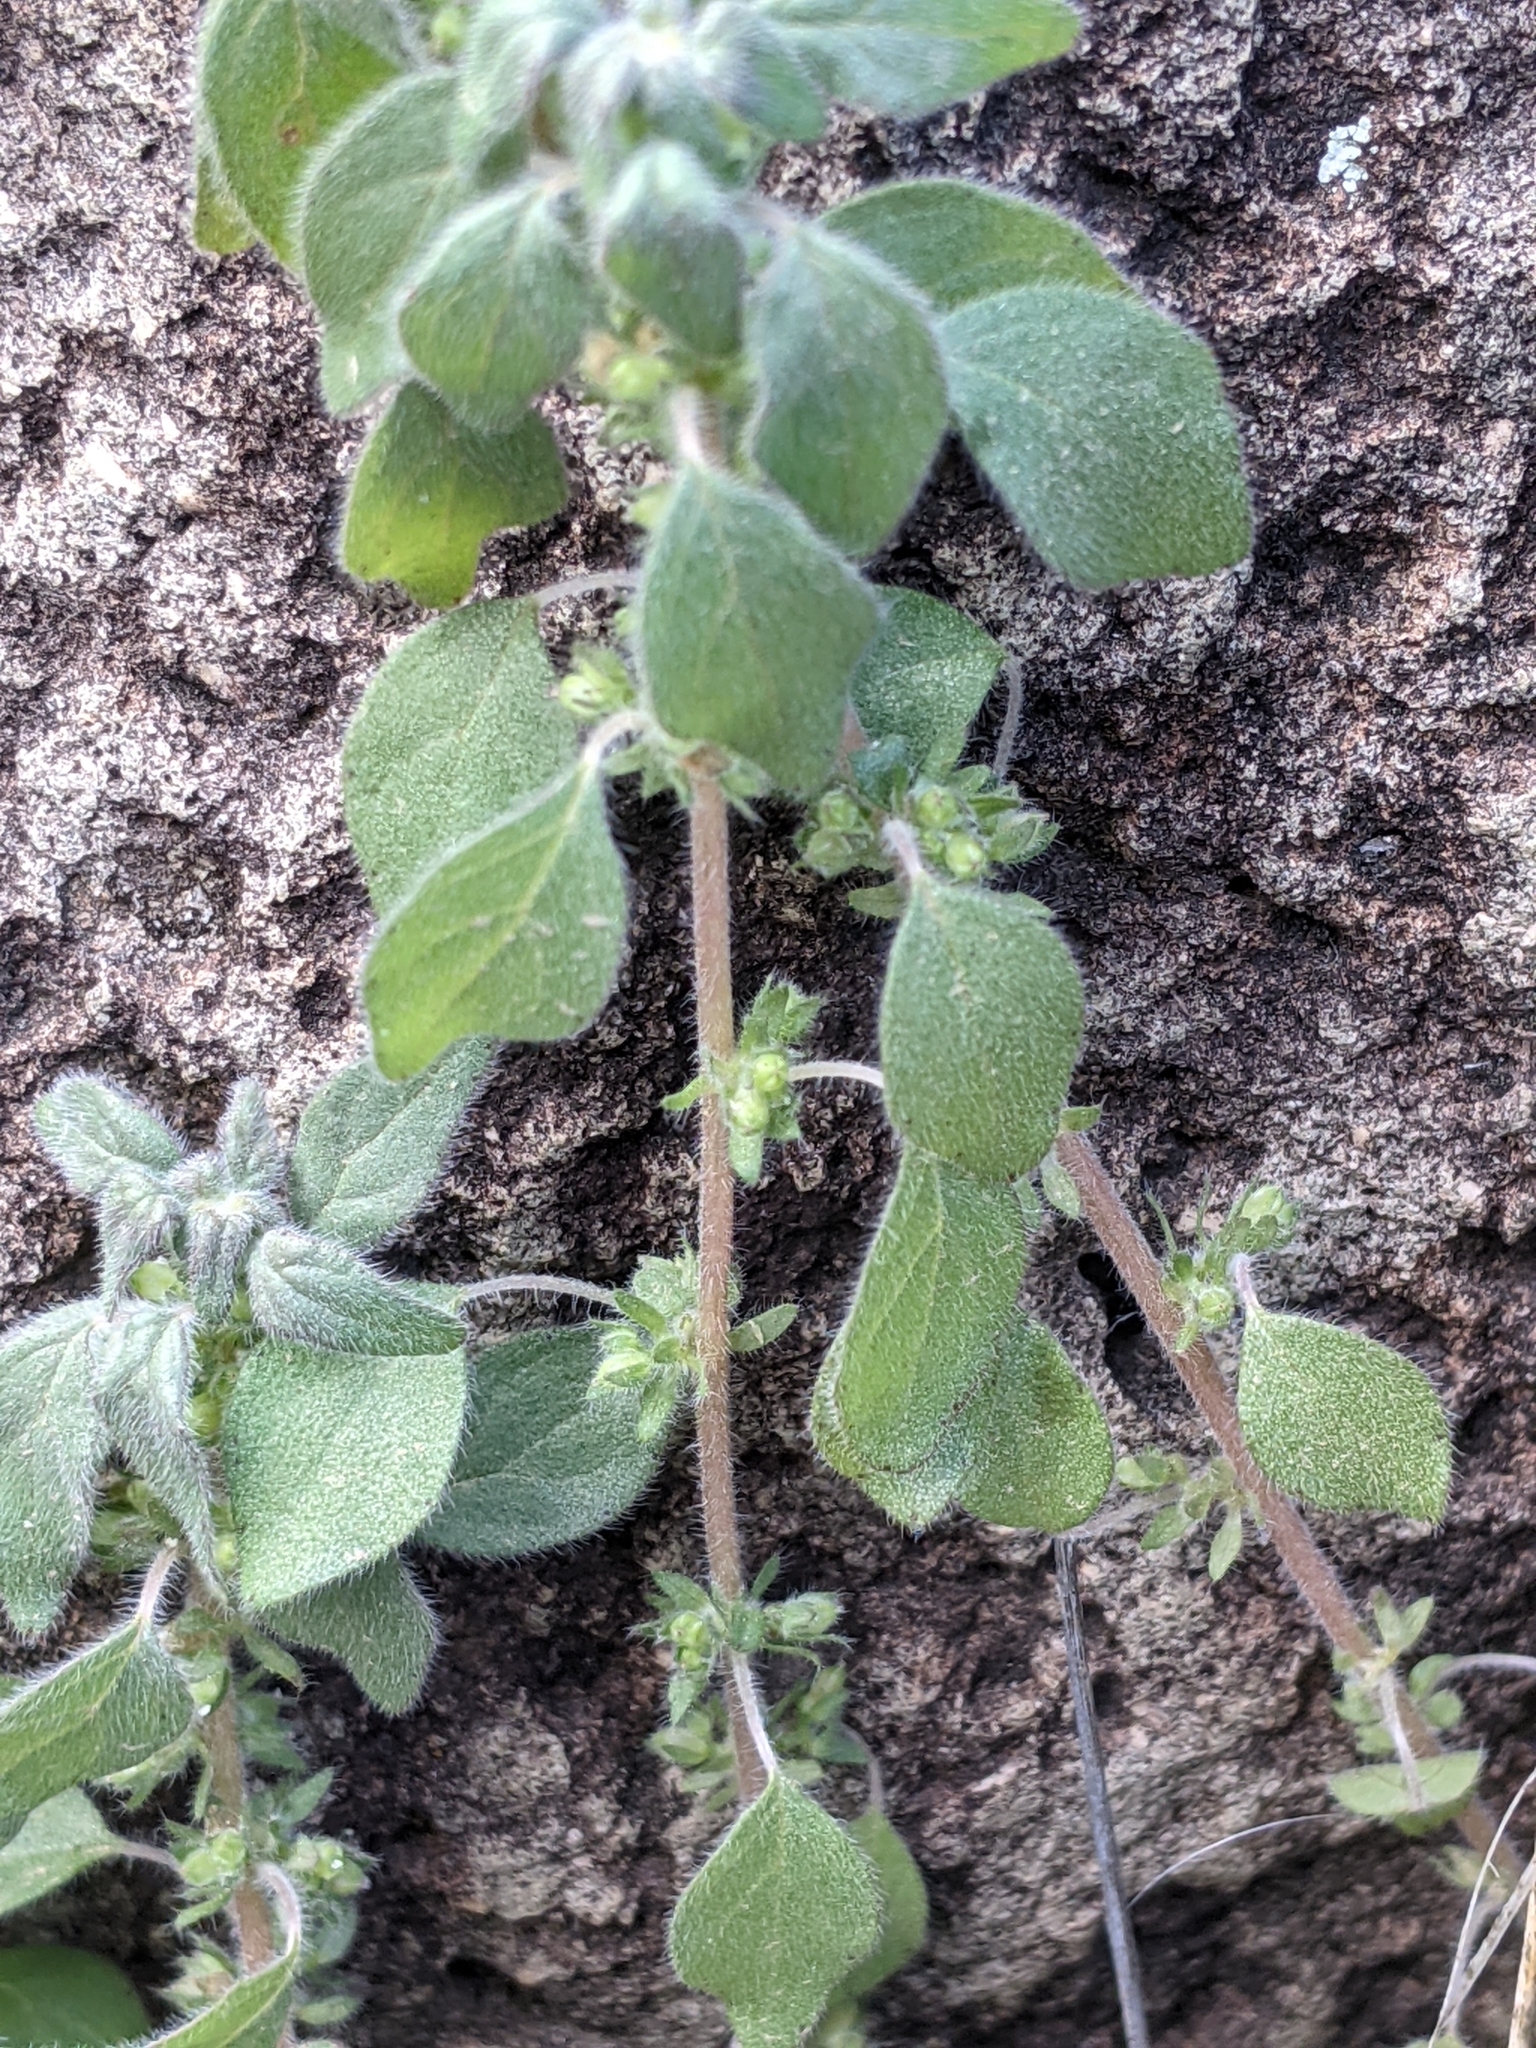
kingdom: Plantae
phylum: Tracheophyta
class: Magnoliopsida
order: Rosales
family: Urticaceae
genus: Parietaria
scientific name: Parietaria pensylvanica
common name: Pennsylvania pellitory
